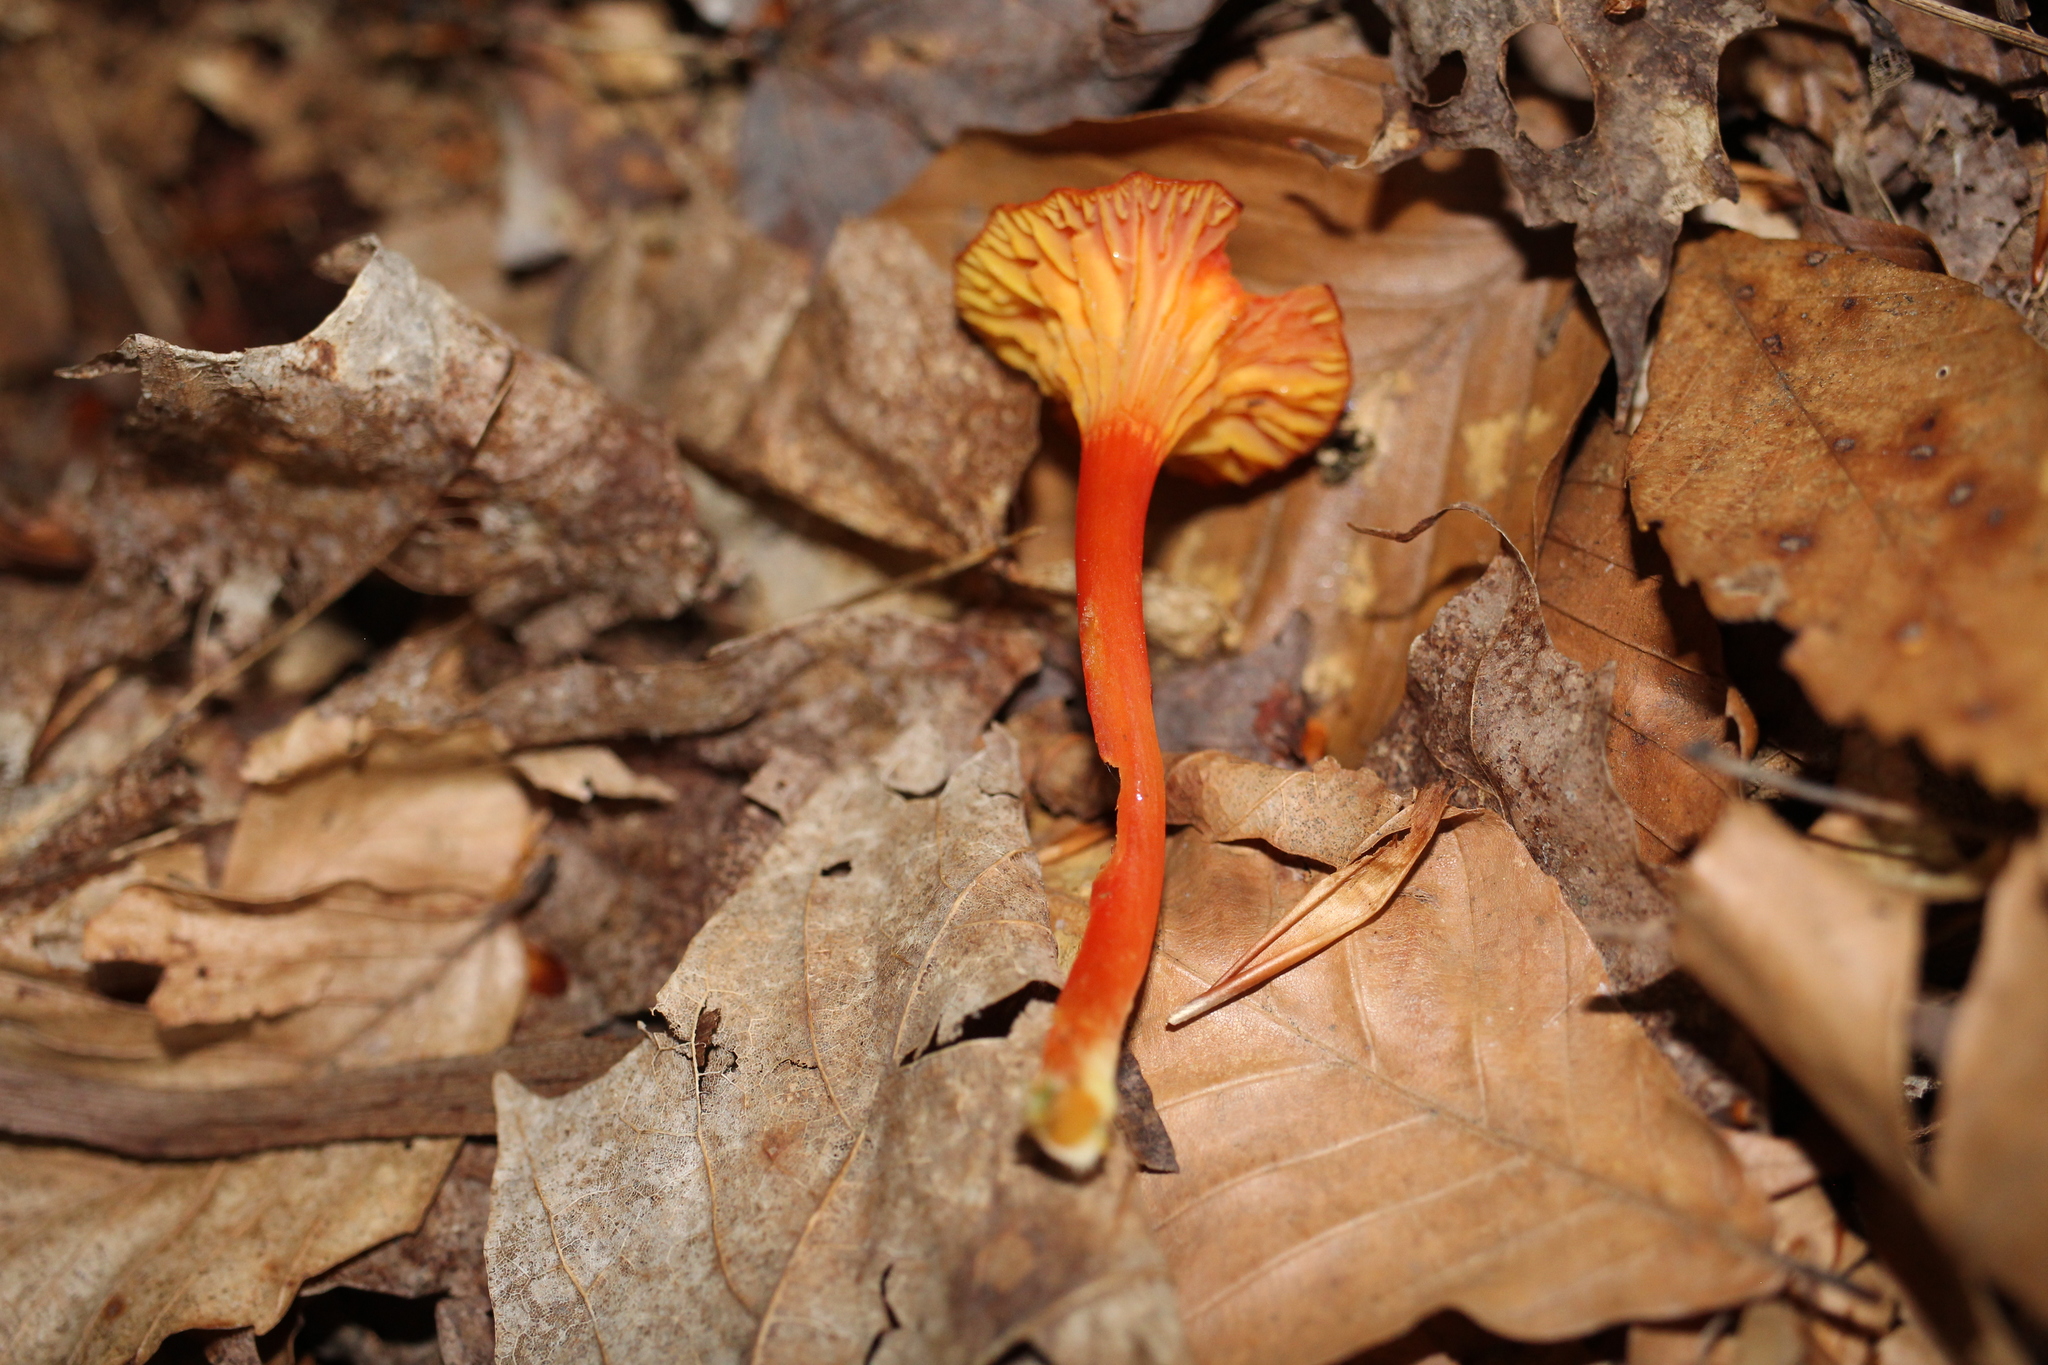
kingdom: Fungi
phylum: Basidiomycota
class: Agaricomycetes
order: Agaricales
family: Hygrophoraceae
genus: Hygrocybe
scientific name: Hygrocybe cantharellus
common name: Goblet waxcap
